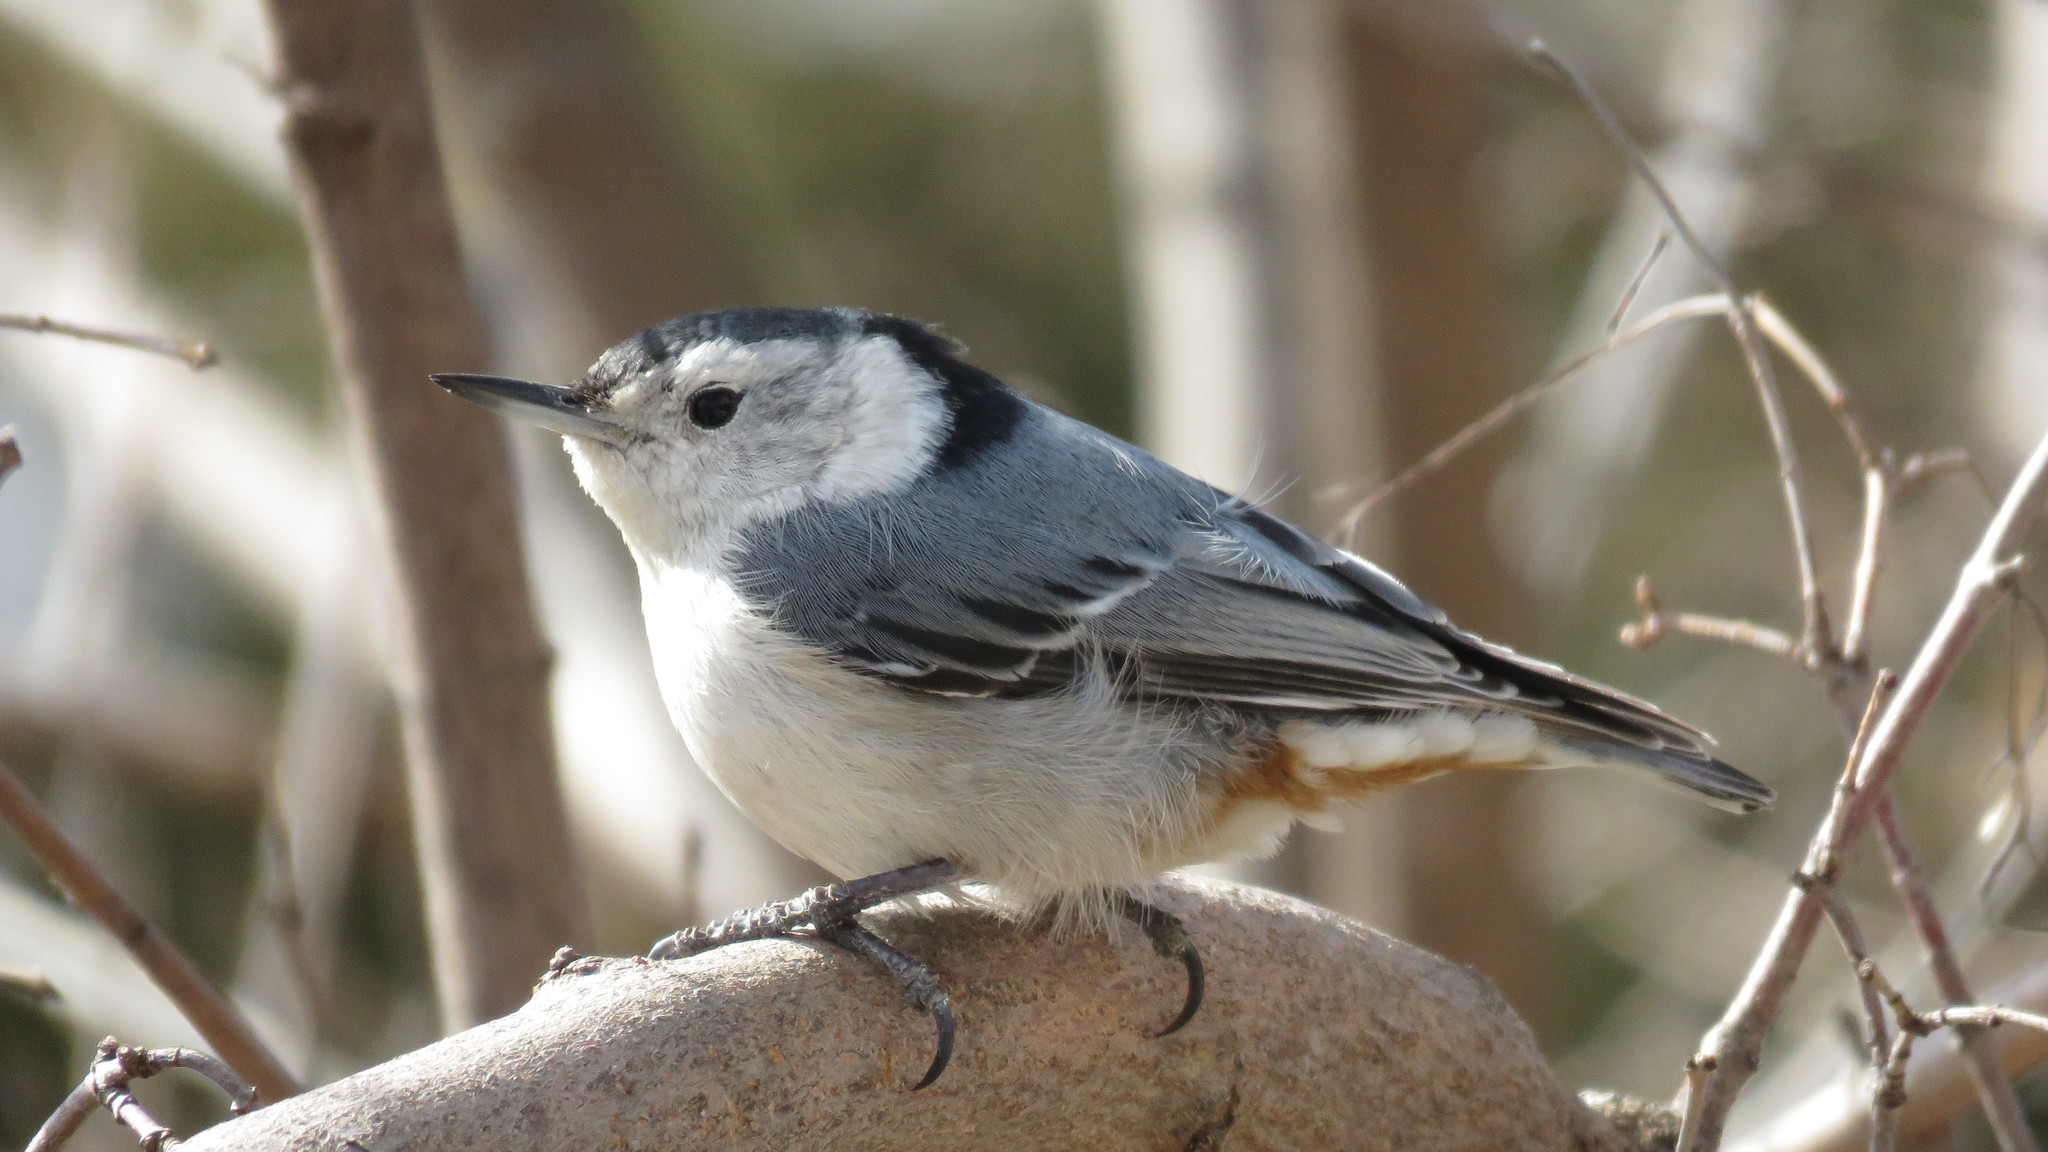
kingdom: Animalia
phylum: Chordata
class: Aves
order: Passeriformes
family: Sittidae
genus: Sitta
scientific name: Sitta carolinensis
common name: White-breasted nuthatch
